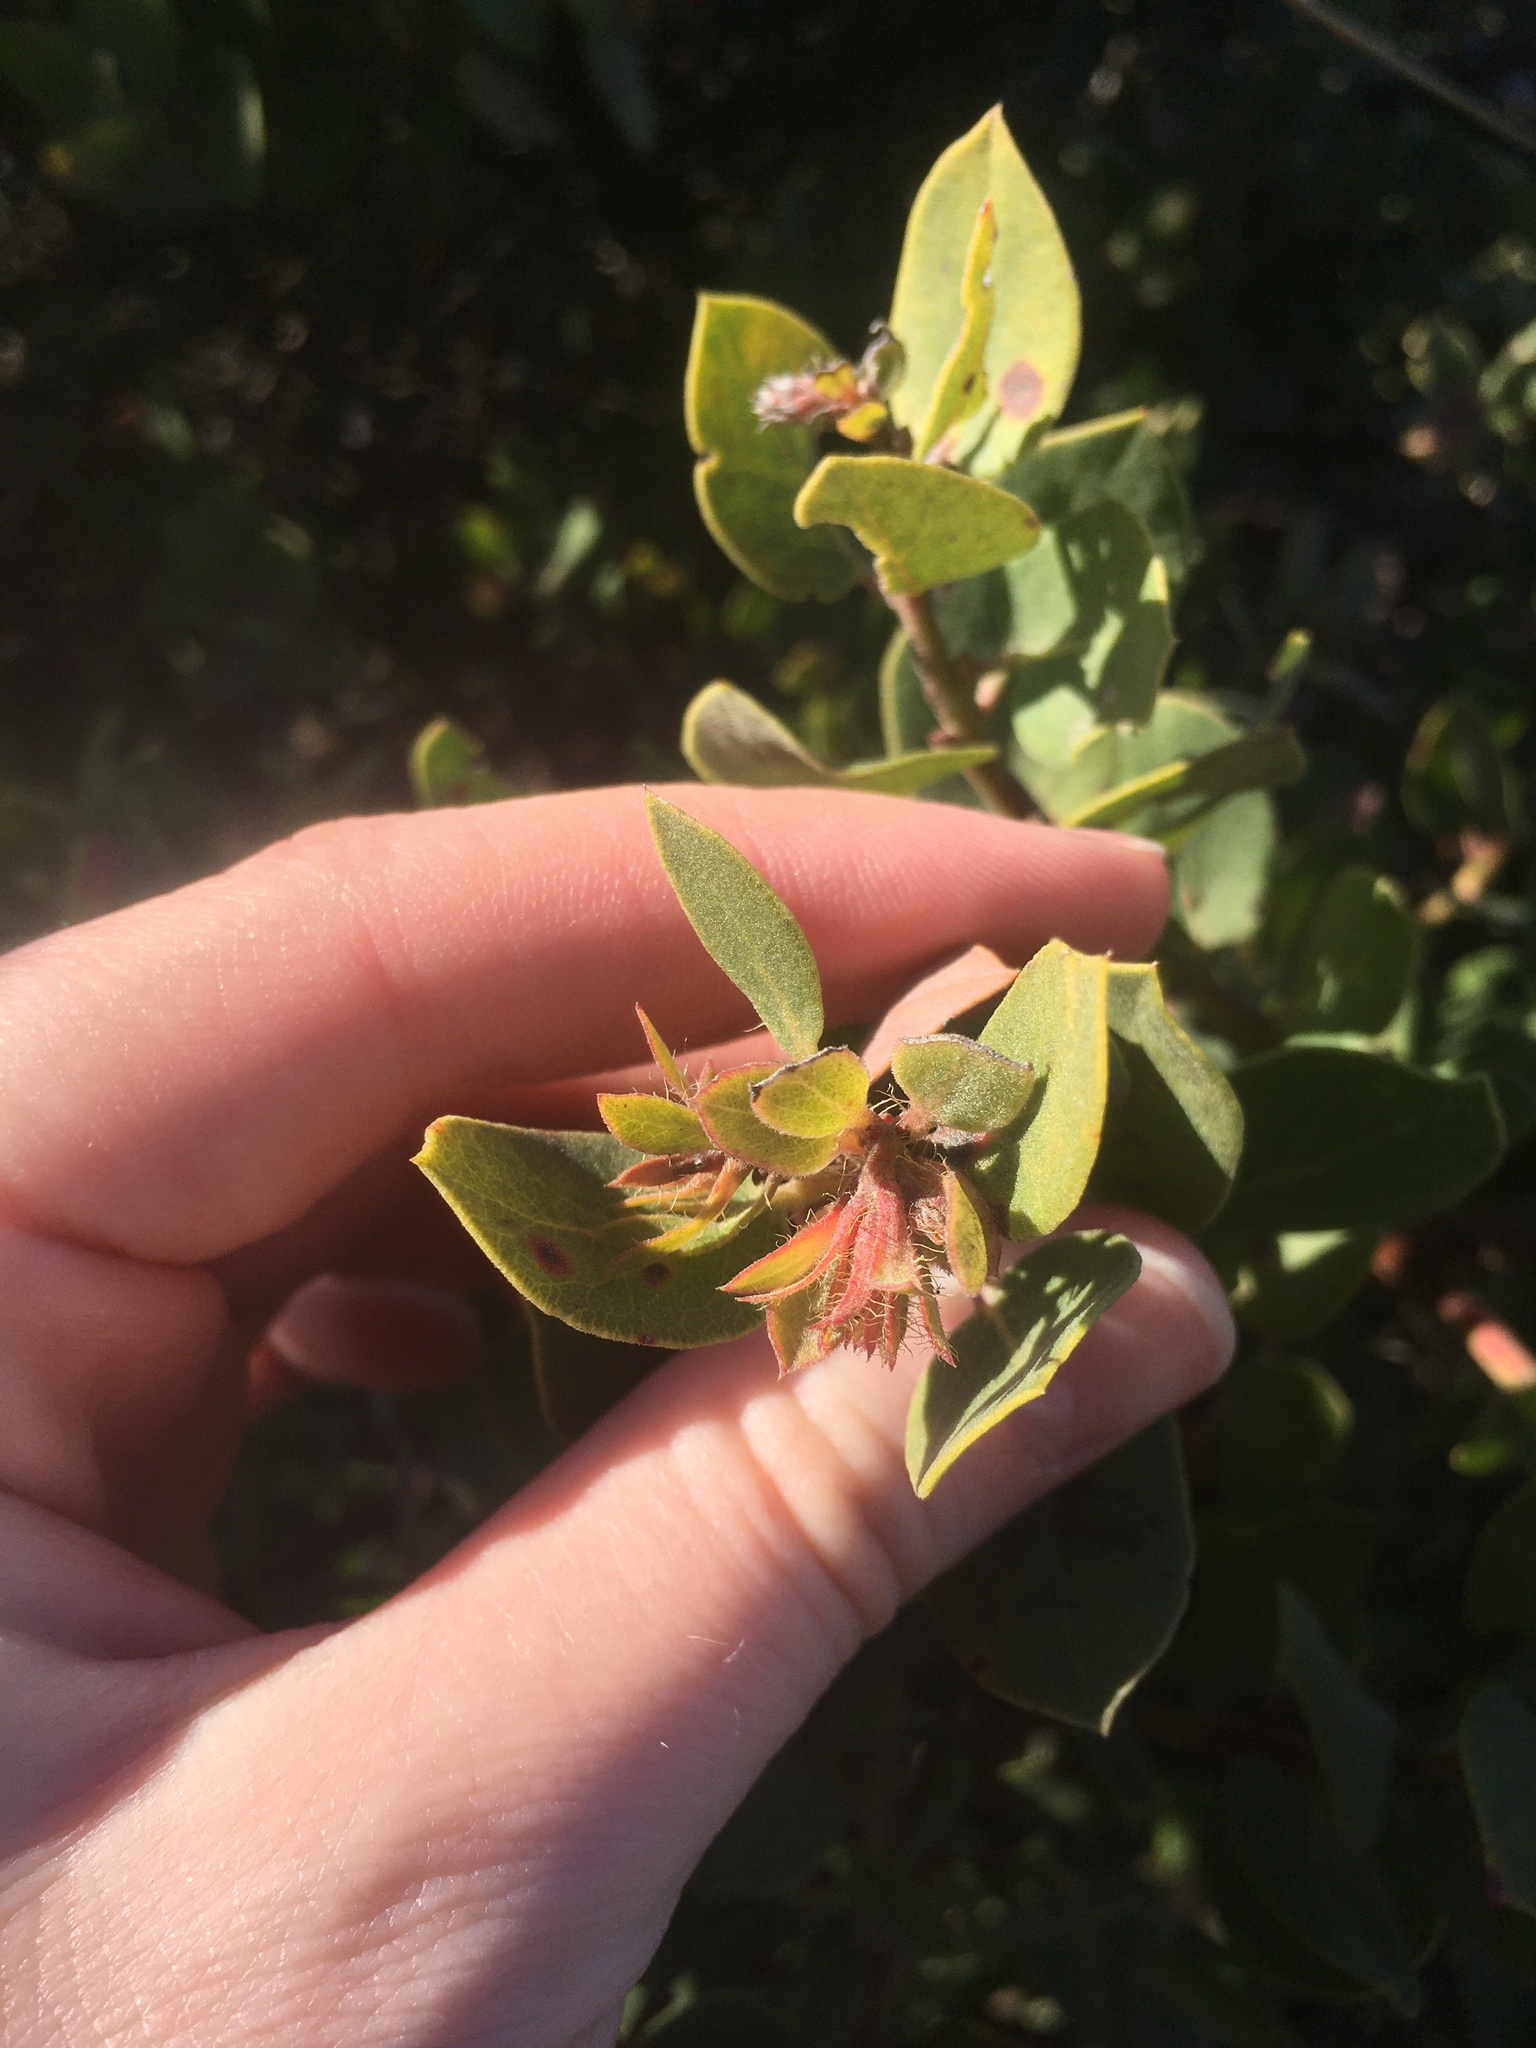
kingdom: Plantae
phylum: Tracheophyta
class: Magnoliopsida
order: Ericales
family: Ericaceae
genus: Arctostaphylos
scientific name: Arctostaphylos morroensis
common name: Morro manzanita
